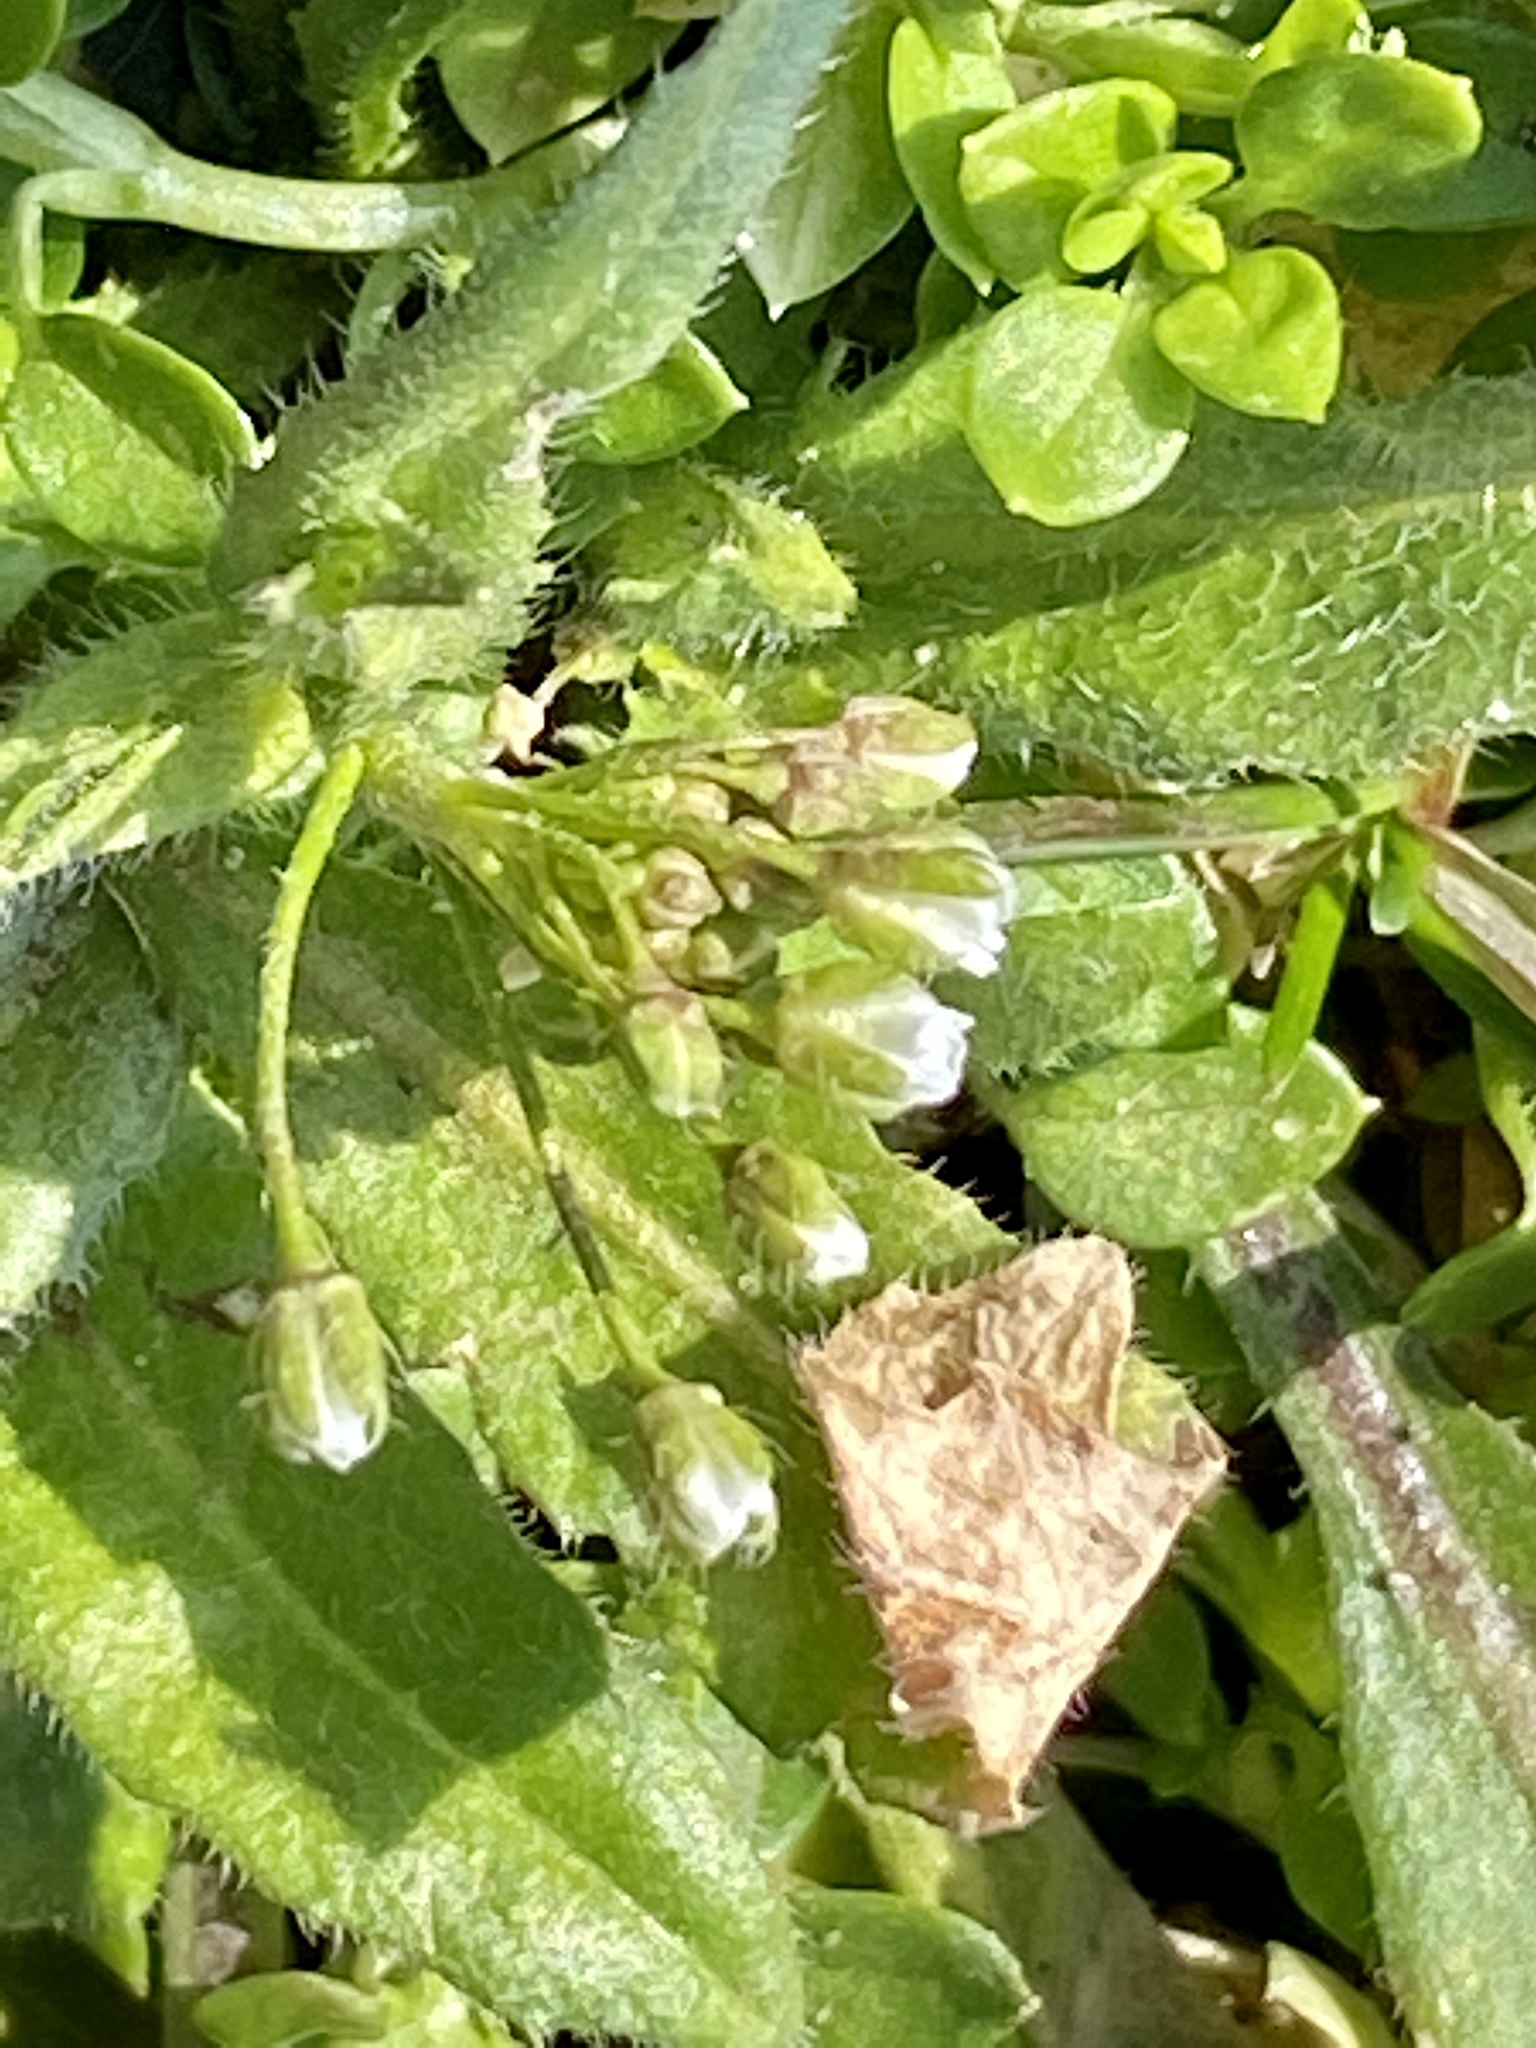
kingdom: Plantae
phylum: Tracheophyta
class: Magnoliopsida
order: Brassicales
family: Brassicaceae
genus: Capsella
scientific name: Capsella bursa-pastoris
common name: Shepherd's purse
